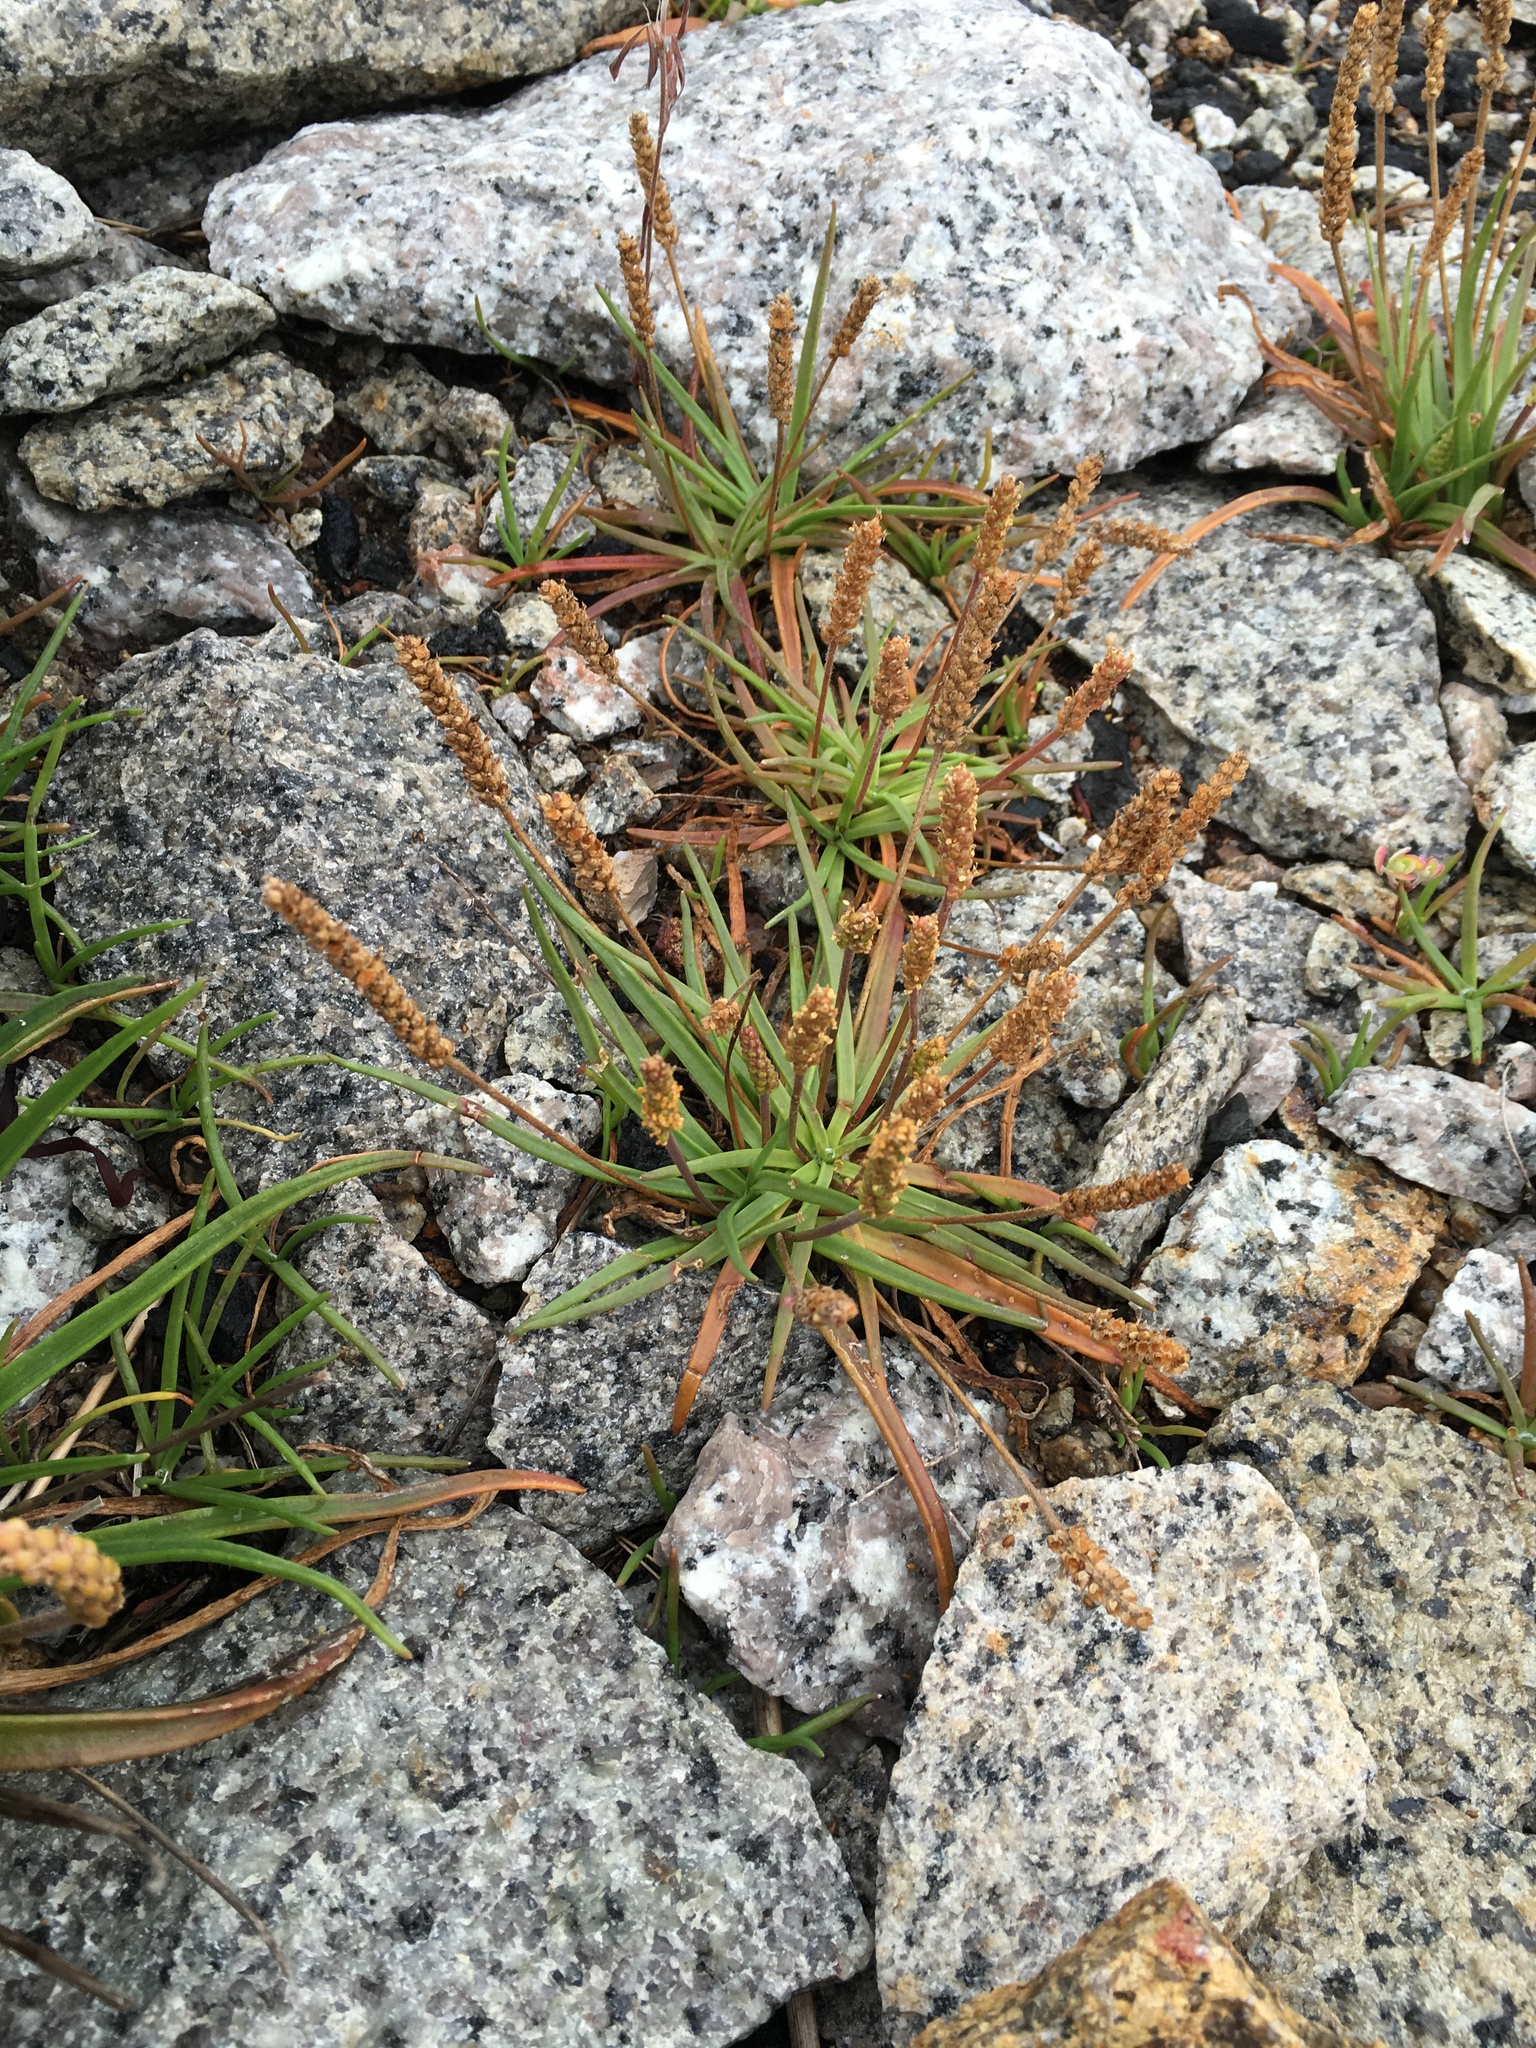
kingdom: Plantae
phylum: Tracheophyta
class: Magnoliopsida
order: Lamiales
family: Plantaginaceae
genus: Plantago
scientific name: Plantago maritima
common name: Sea plantain
